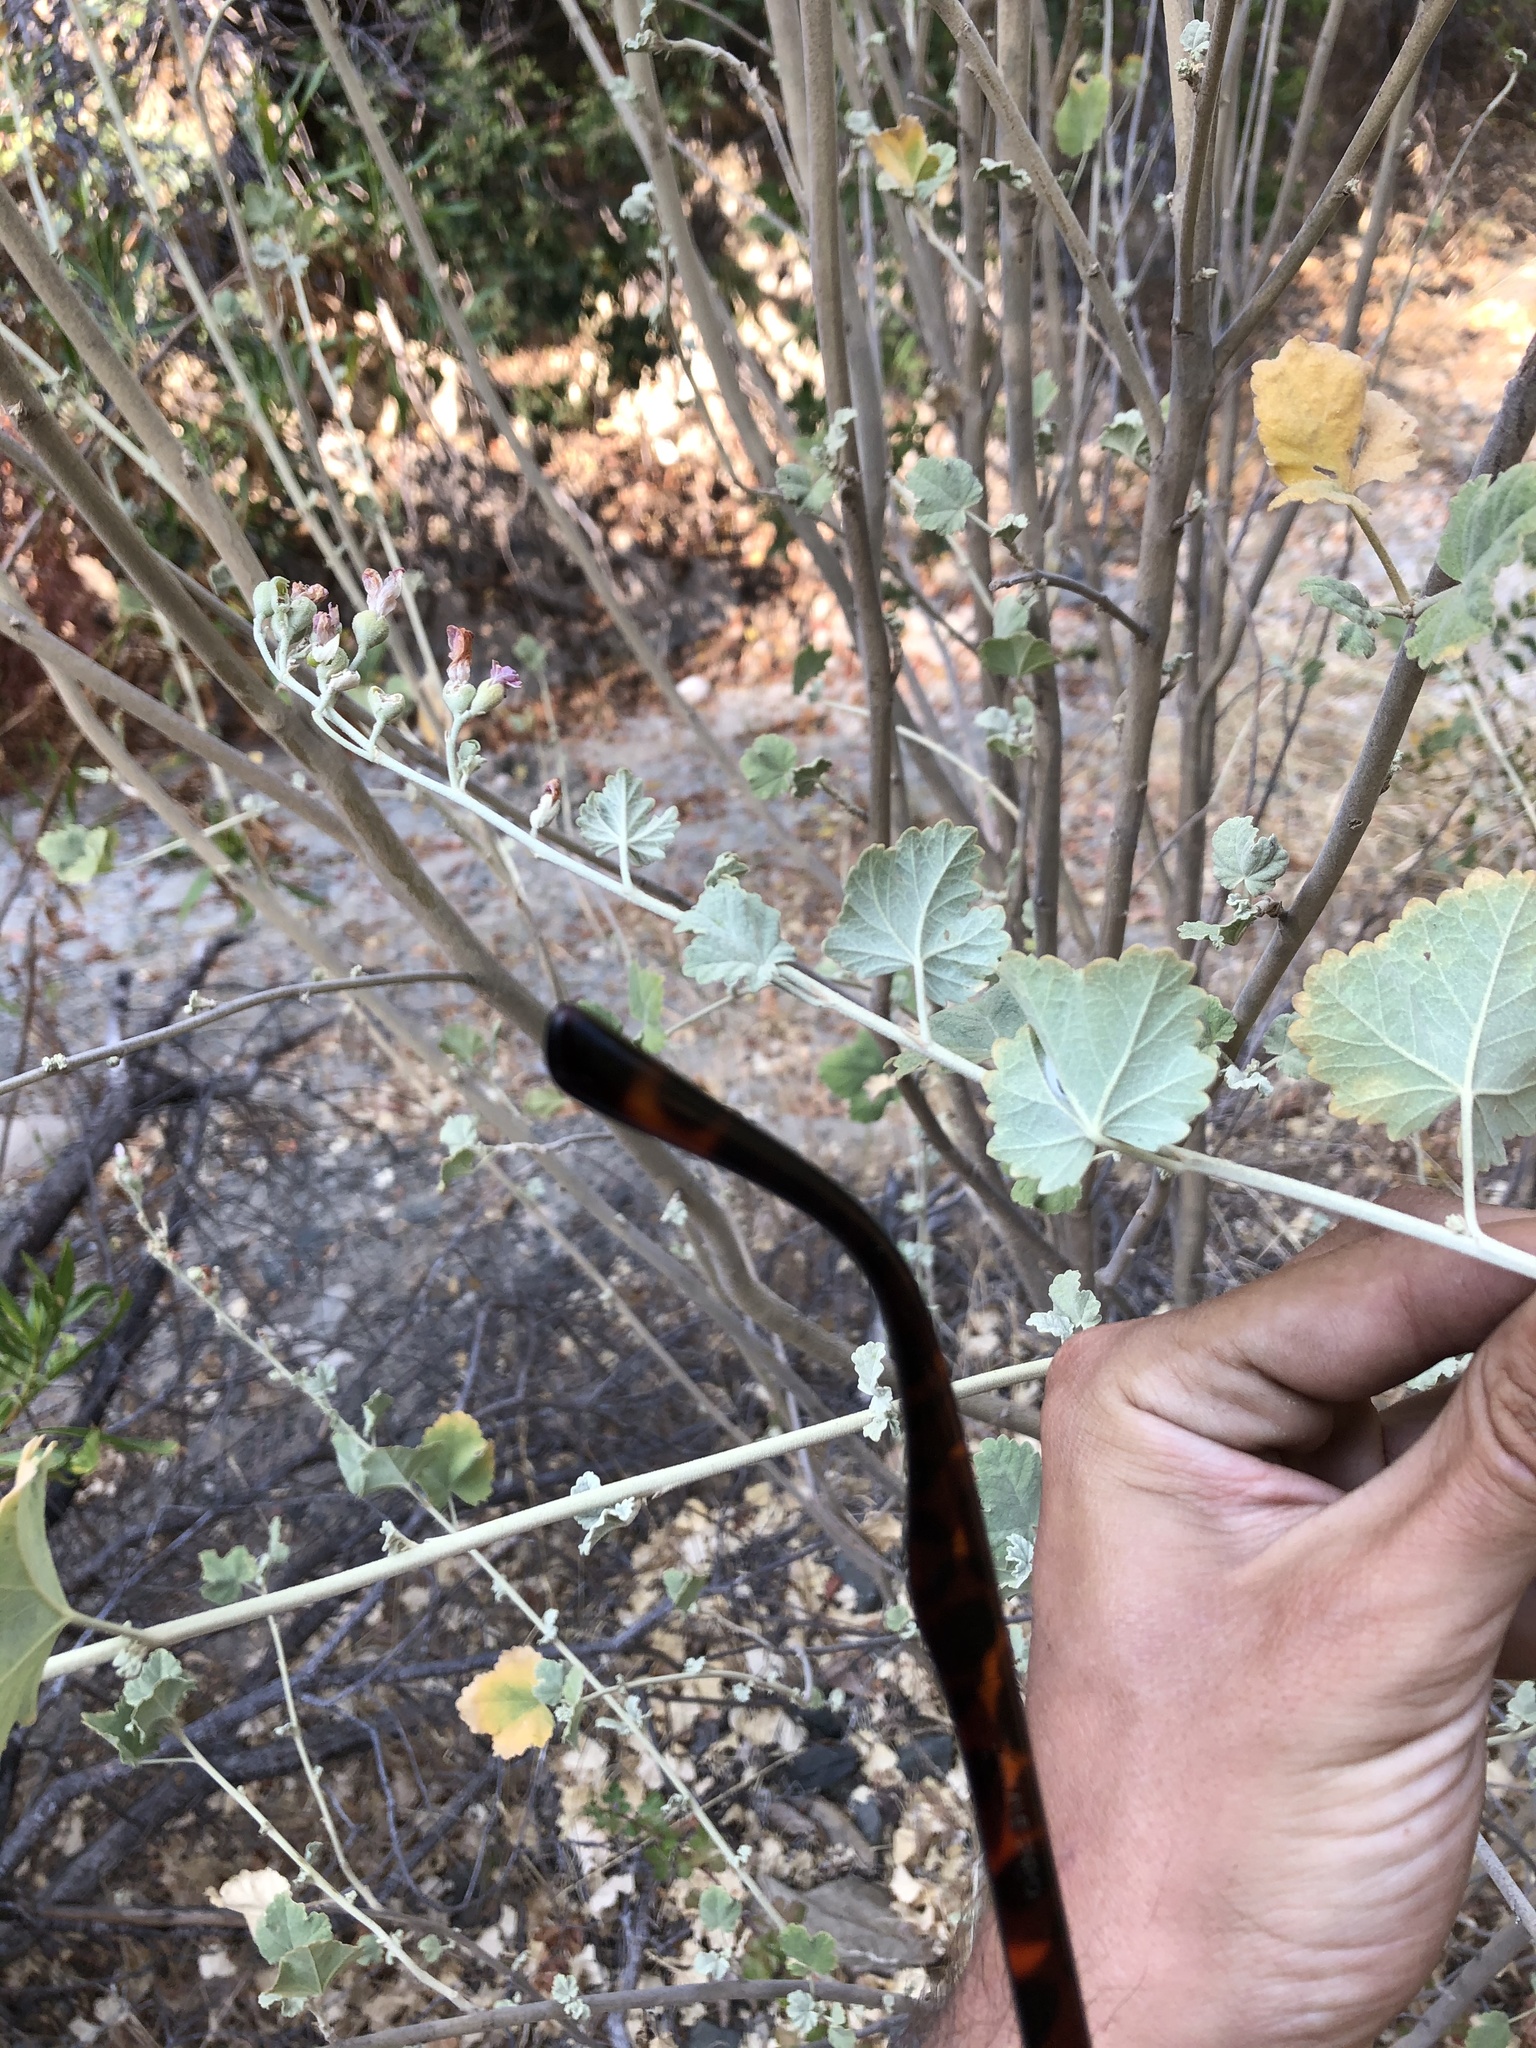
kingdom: Plantae
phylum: Tracheophyta
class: Magnoliopsida
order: Malvales
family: Malvaceae
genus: Malacothamnus
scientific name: Malacothamnus fasciculatus
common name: Sant cruz island bush-mallow
